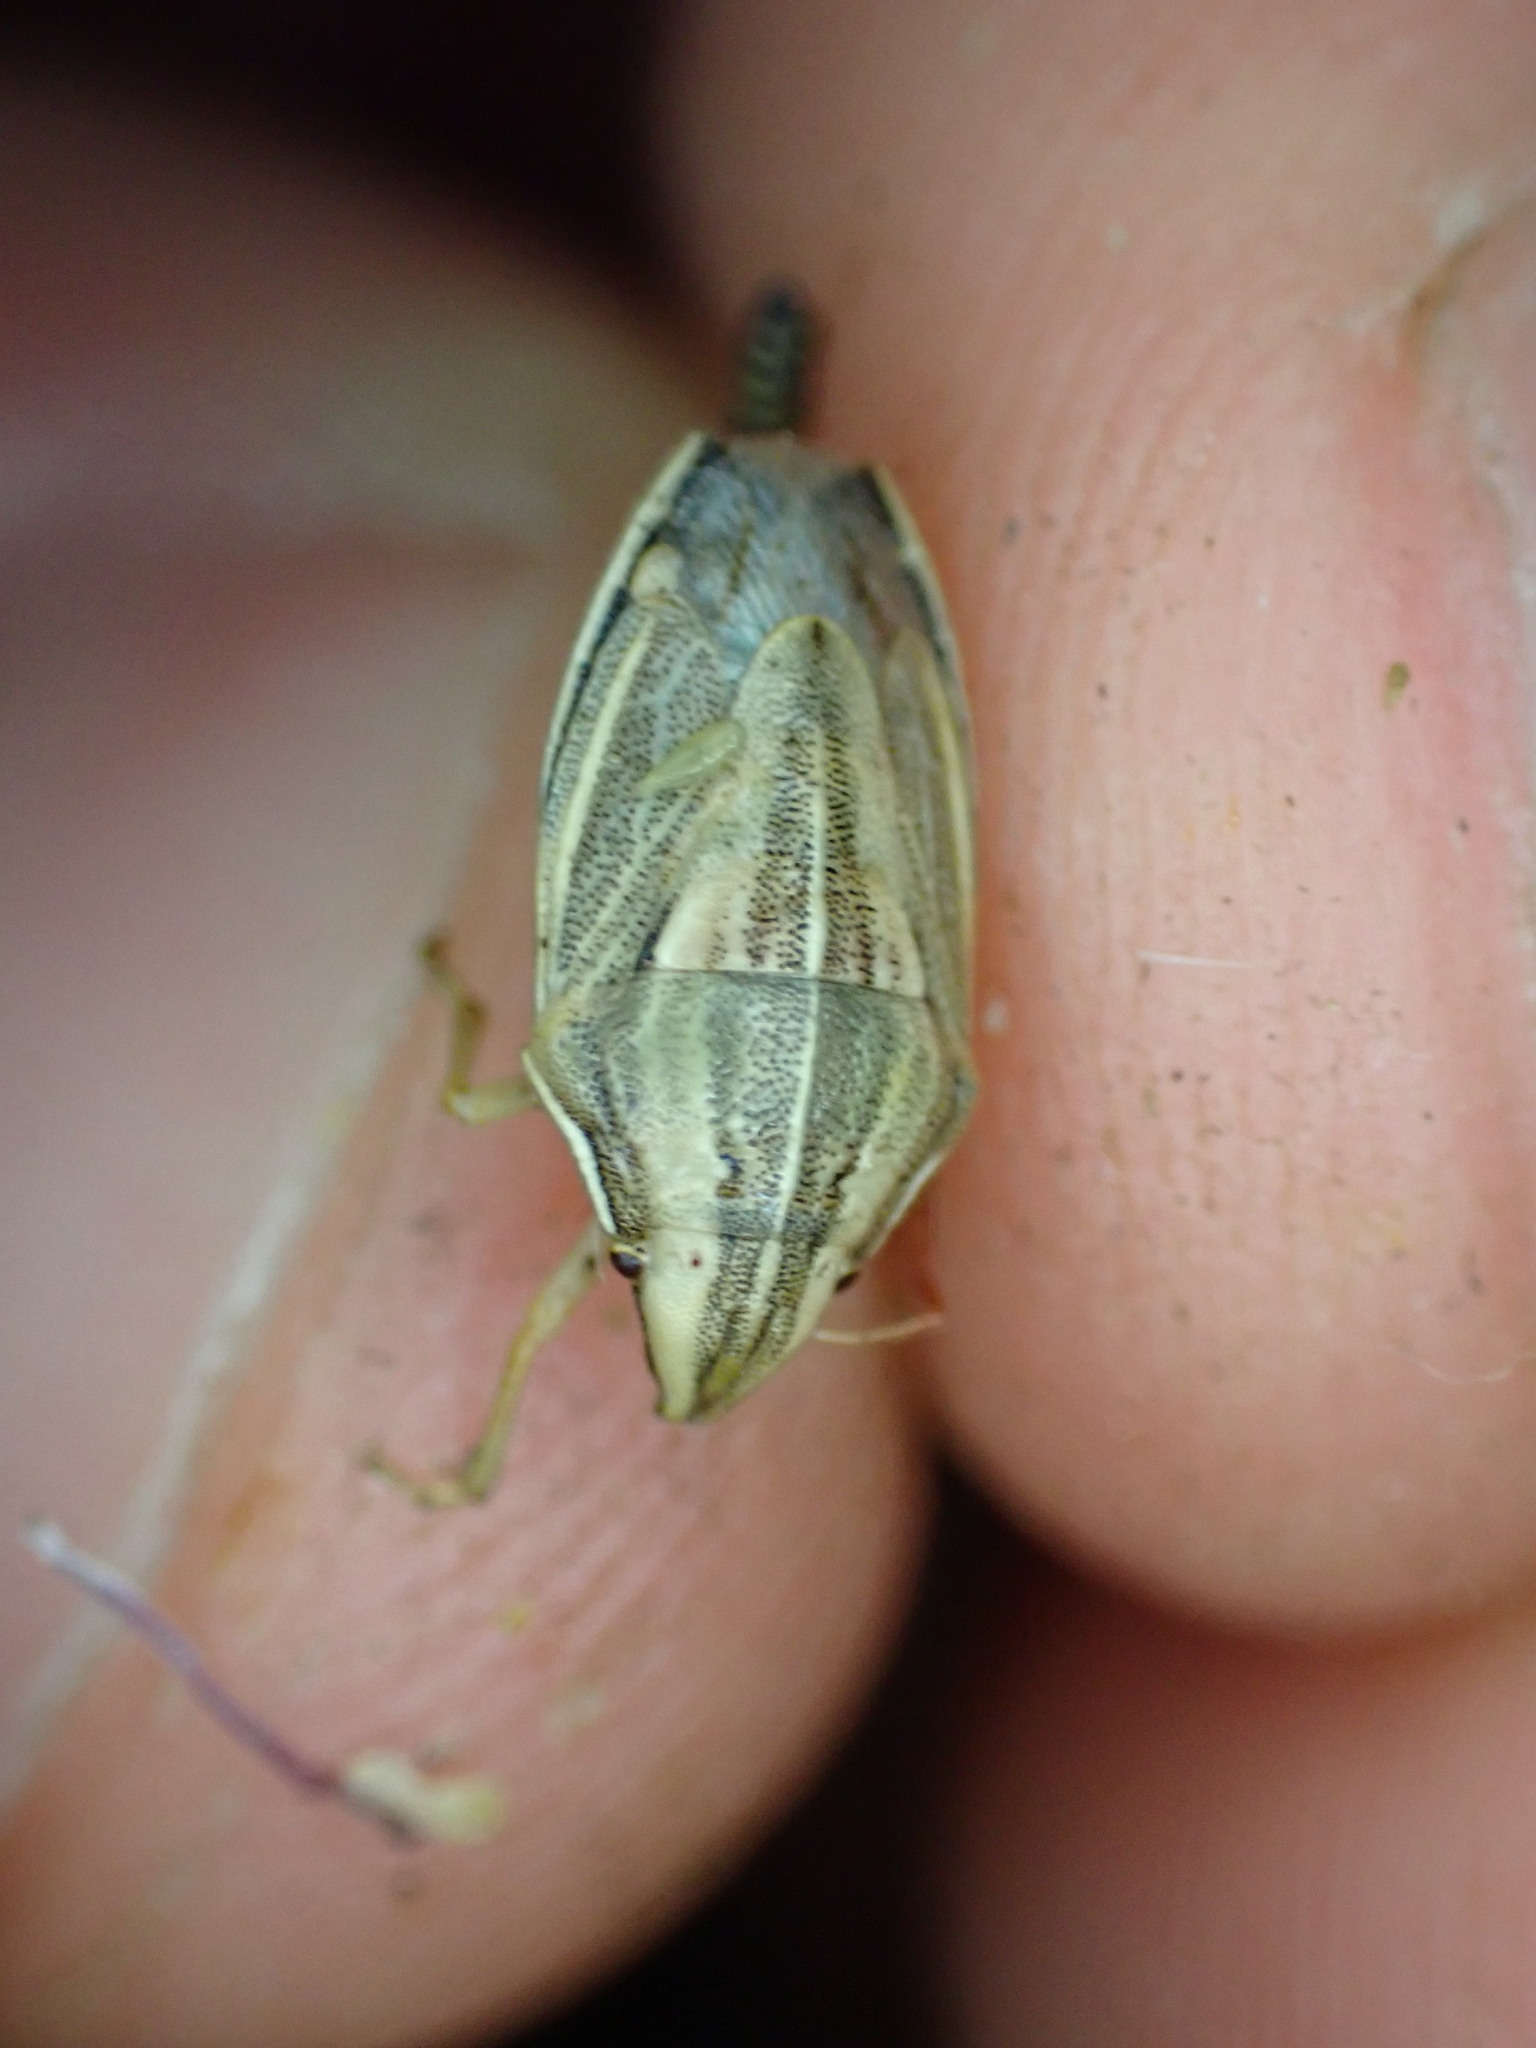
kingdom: Animalia
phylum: Arthropoda
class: Insecta
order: Hemiptera
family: Pentatomidae
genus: Aelia
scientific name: Aelia acuminata
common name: Bishop's mitre
